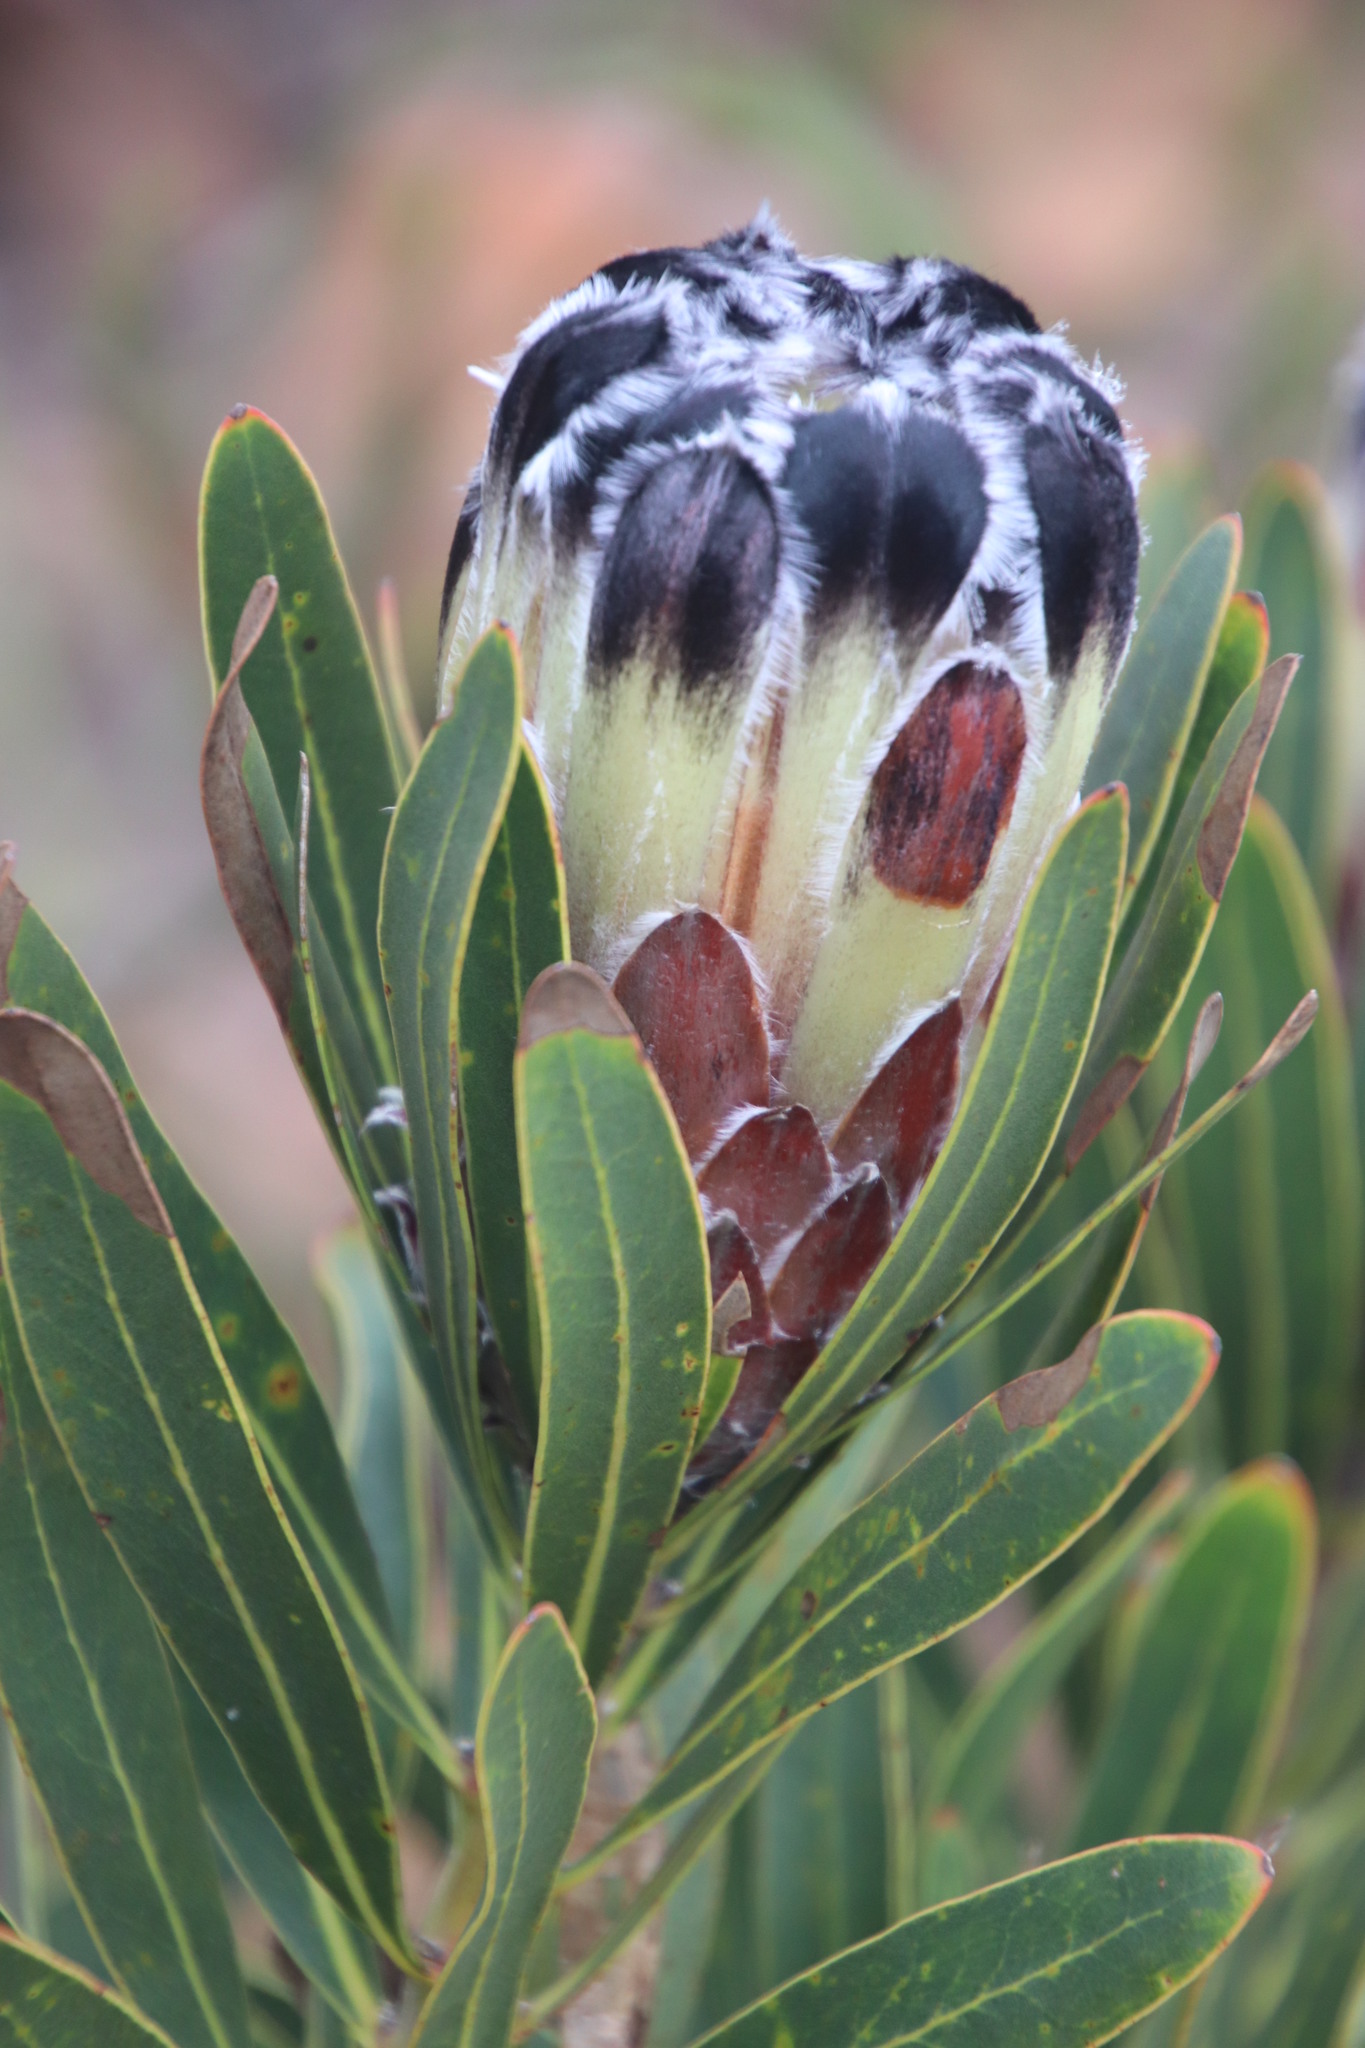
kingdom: Plantae
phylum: Tracheophyta
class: Magnoliopsida
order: Proteales
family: Proteaceae
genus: Protea
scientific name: Protea lepidocarpodendron
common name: Black-bearded protea
